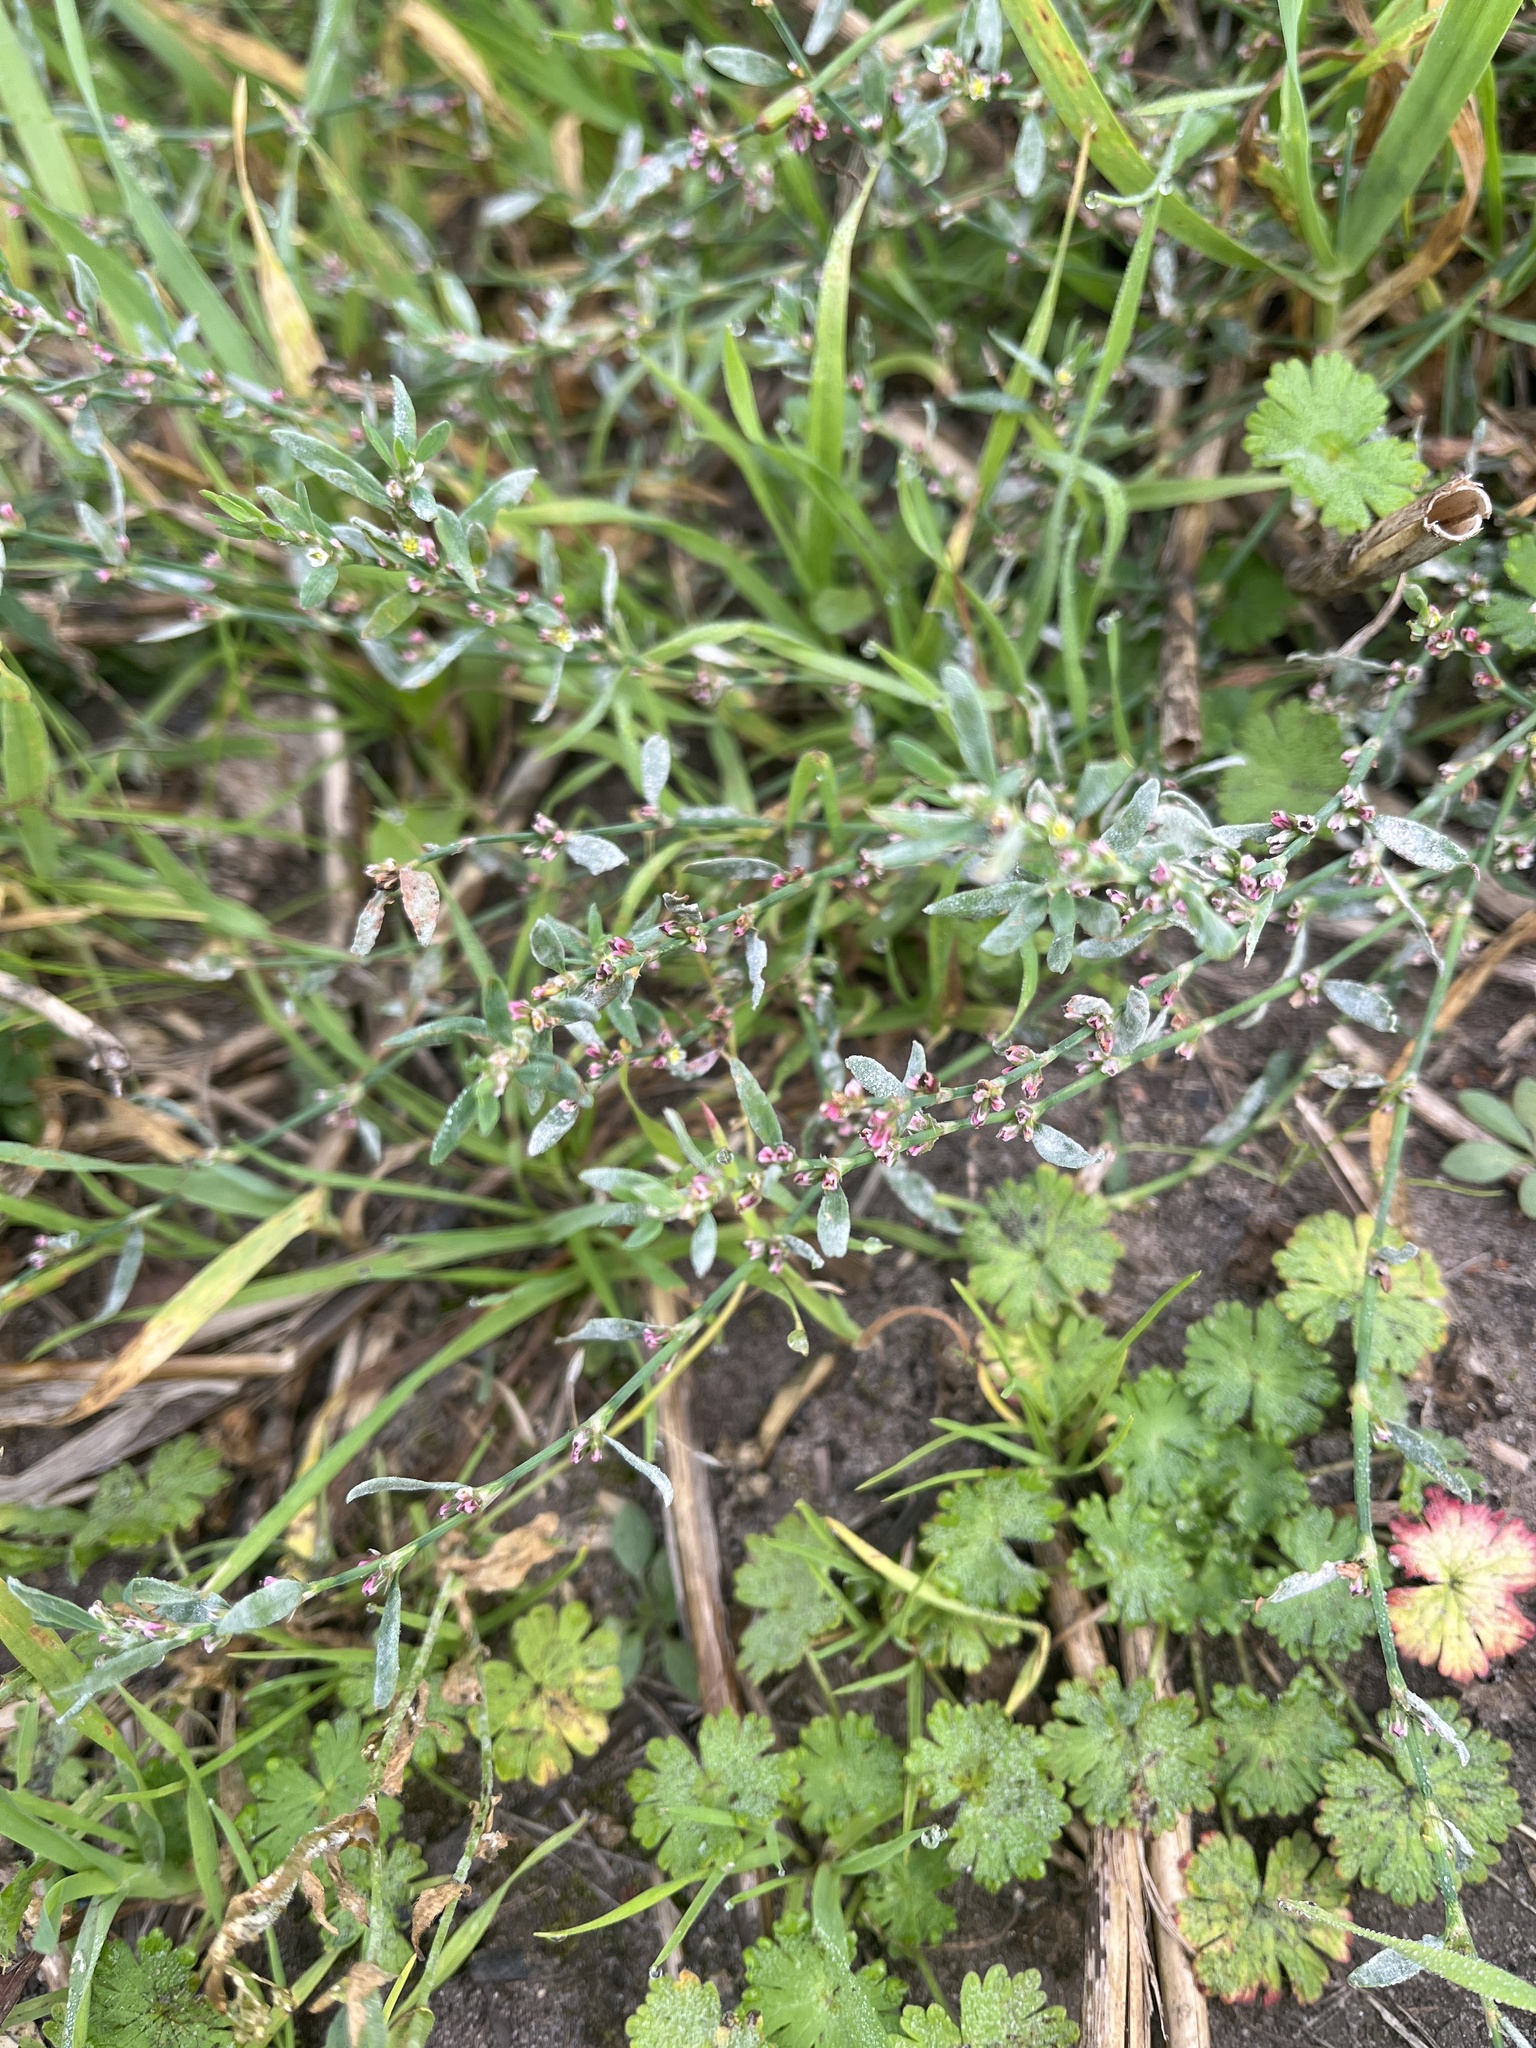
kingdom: Fungi
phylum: Ascomycota
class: Leotiomycetes
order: Helotiales
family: Erysiphaceae
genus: Erysiphe
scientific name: Erysiphe polygoni
